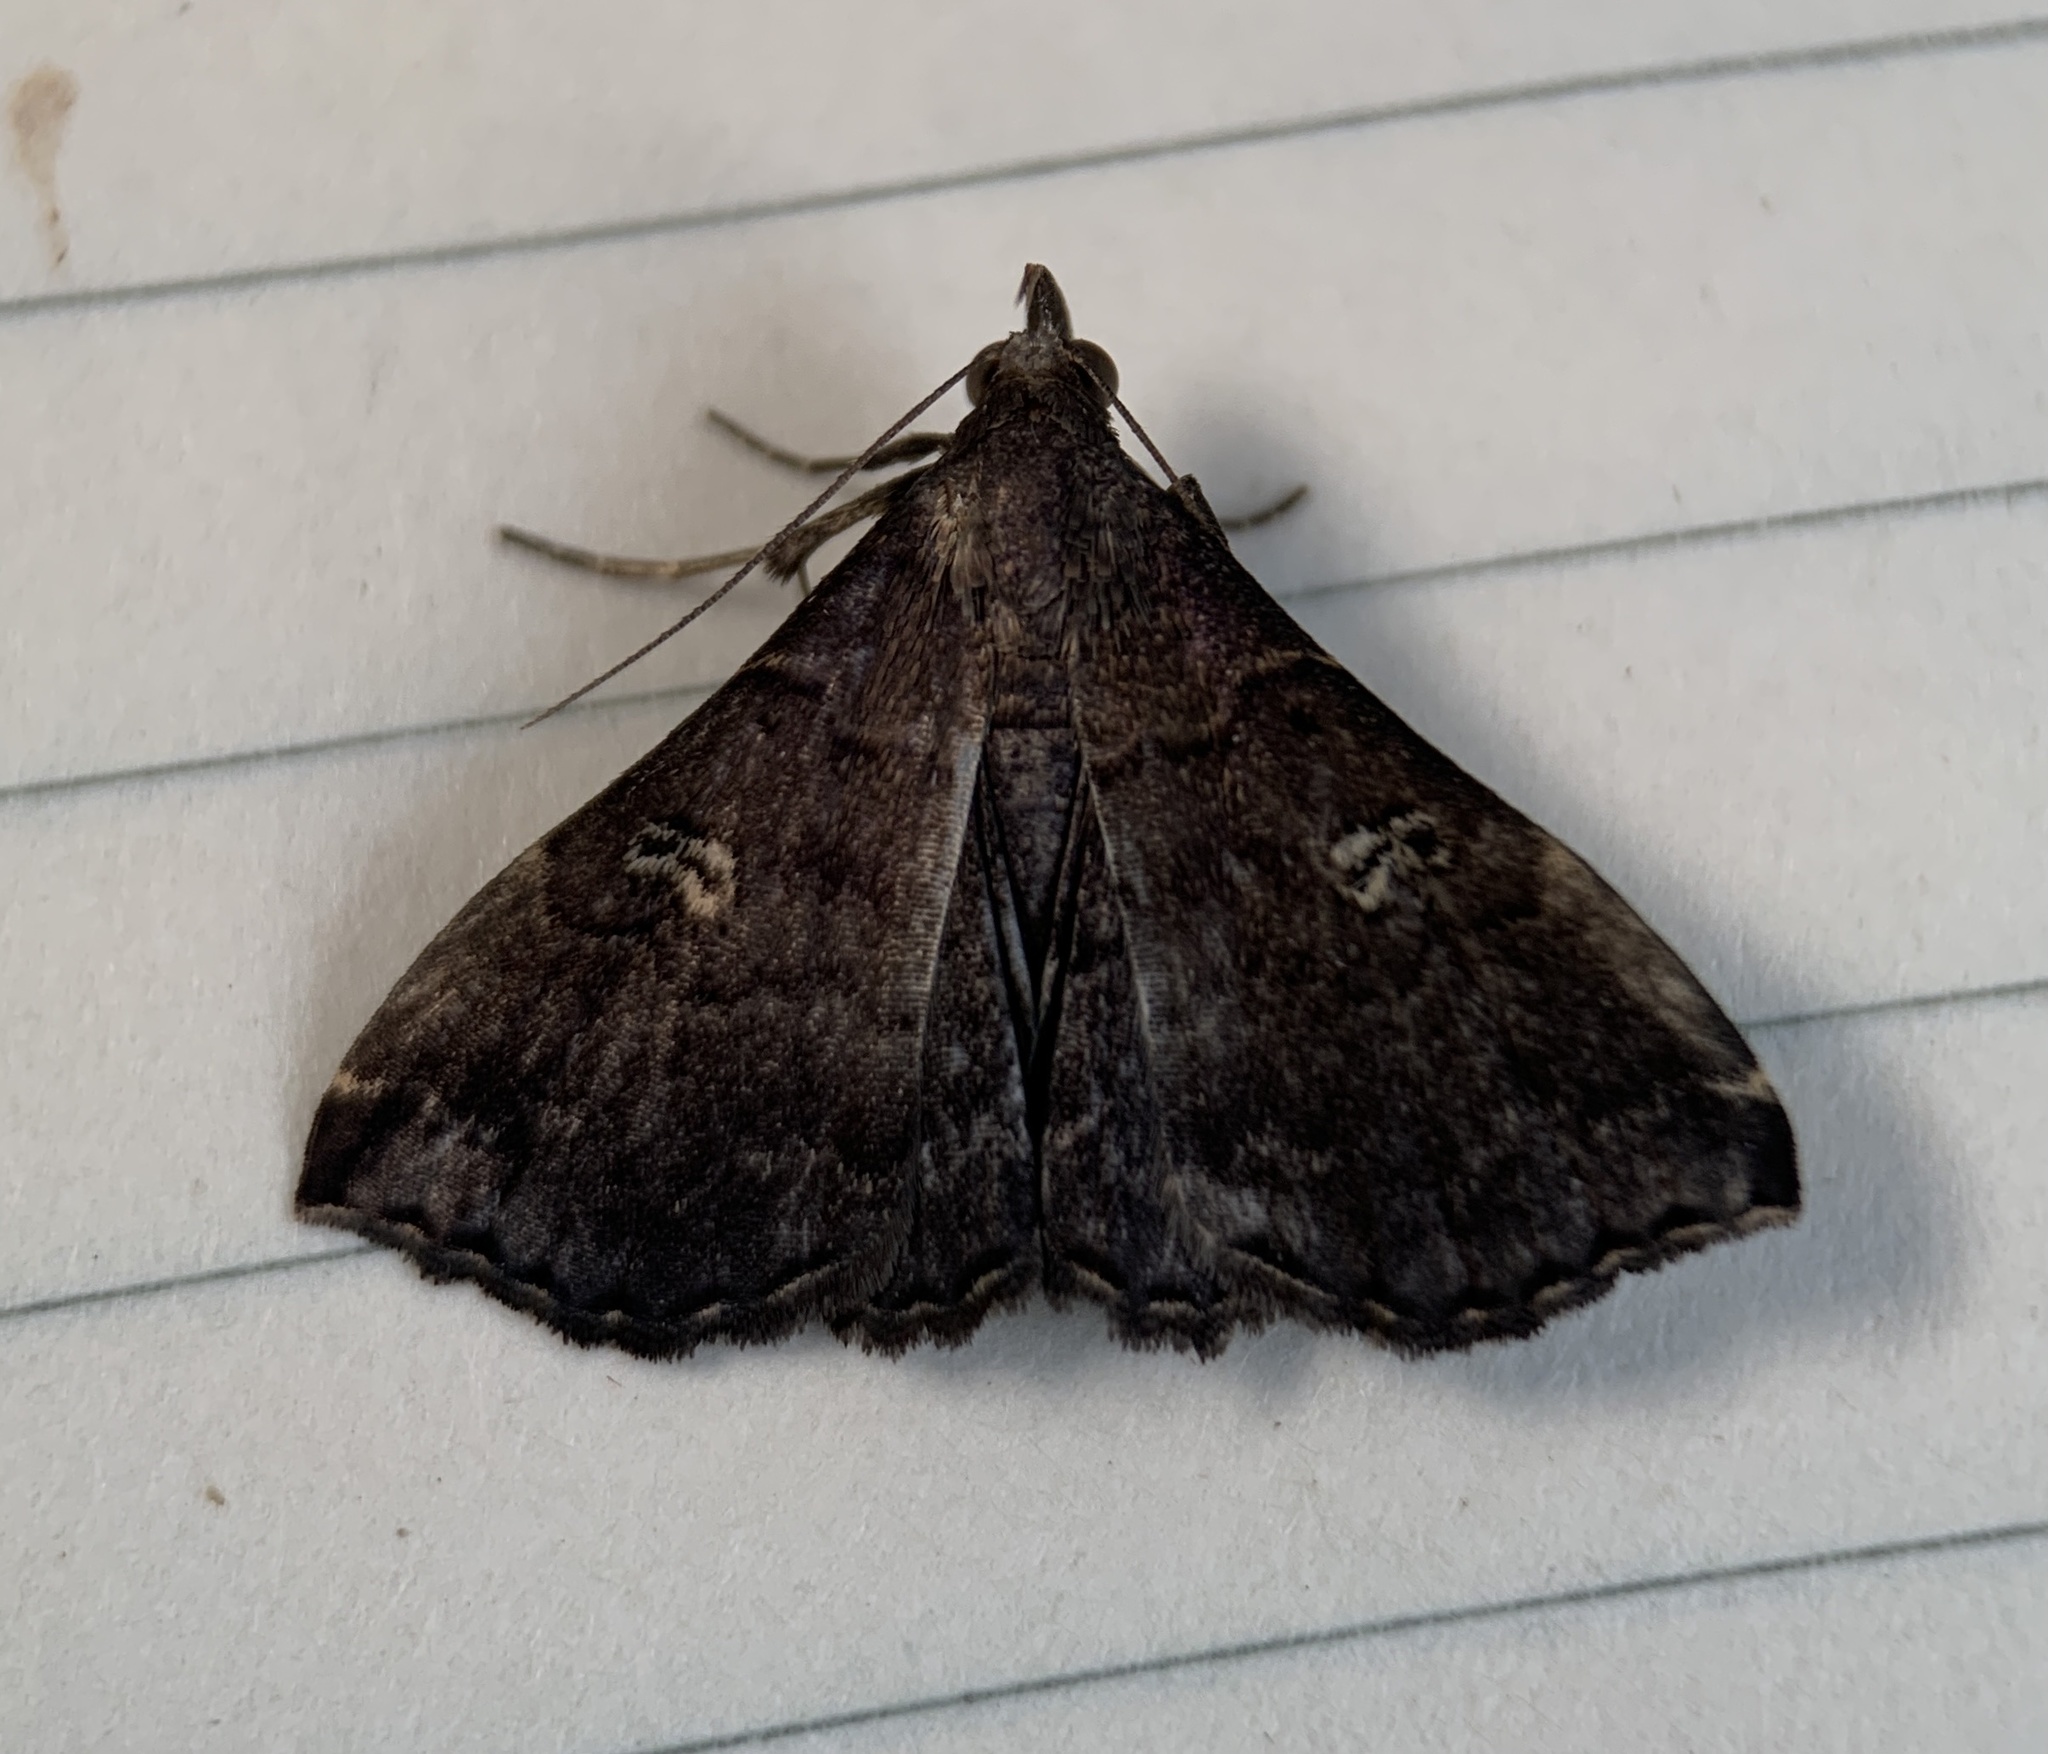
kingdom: Animalia
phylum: Arthropoda
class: Insecta
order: Lepidoptera
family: Erebidae
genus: Phlyctaina
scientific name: Phlyctaina irrigualis
